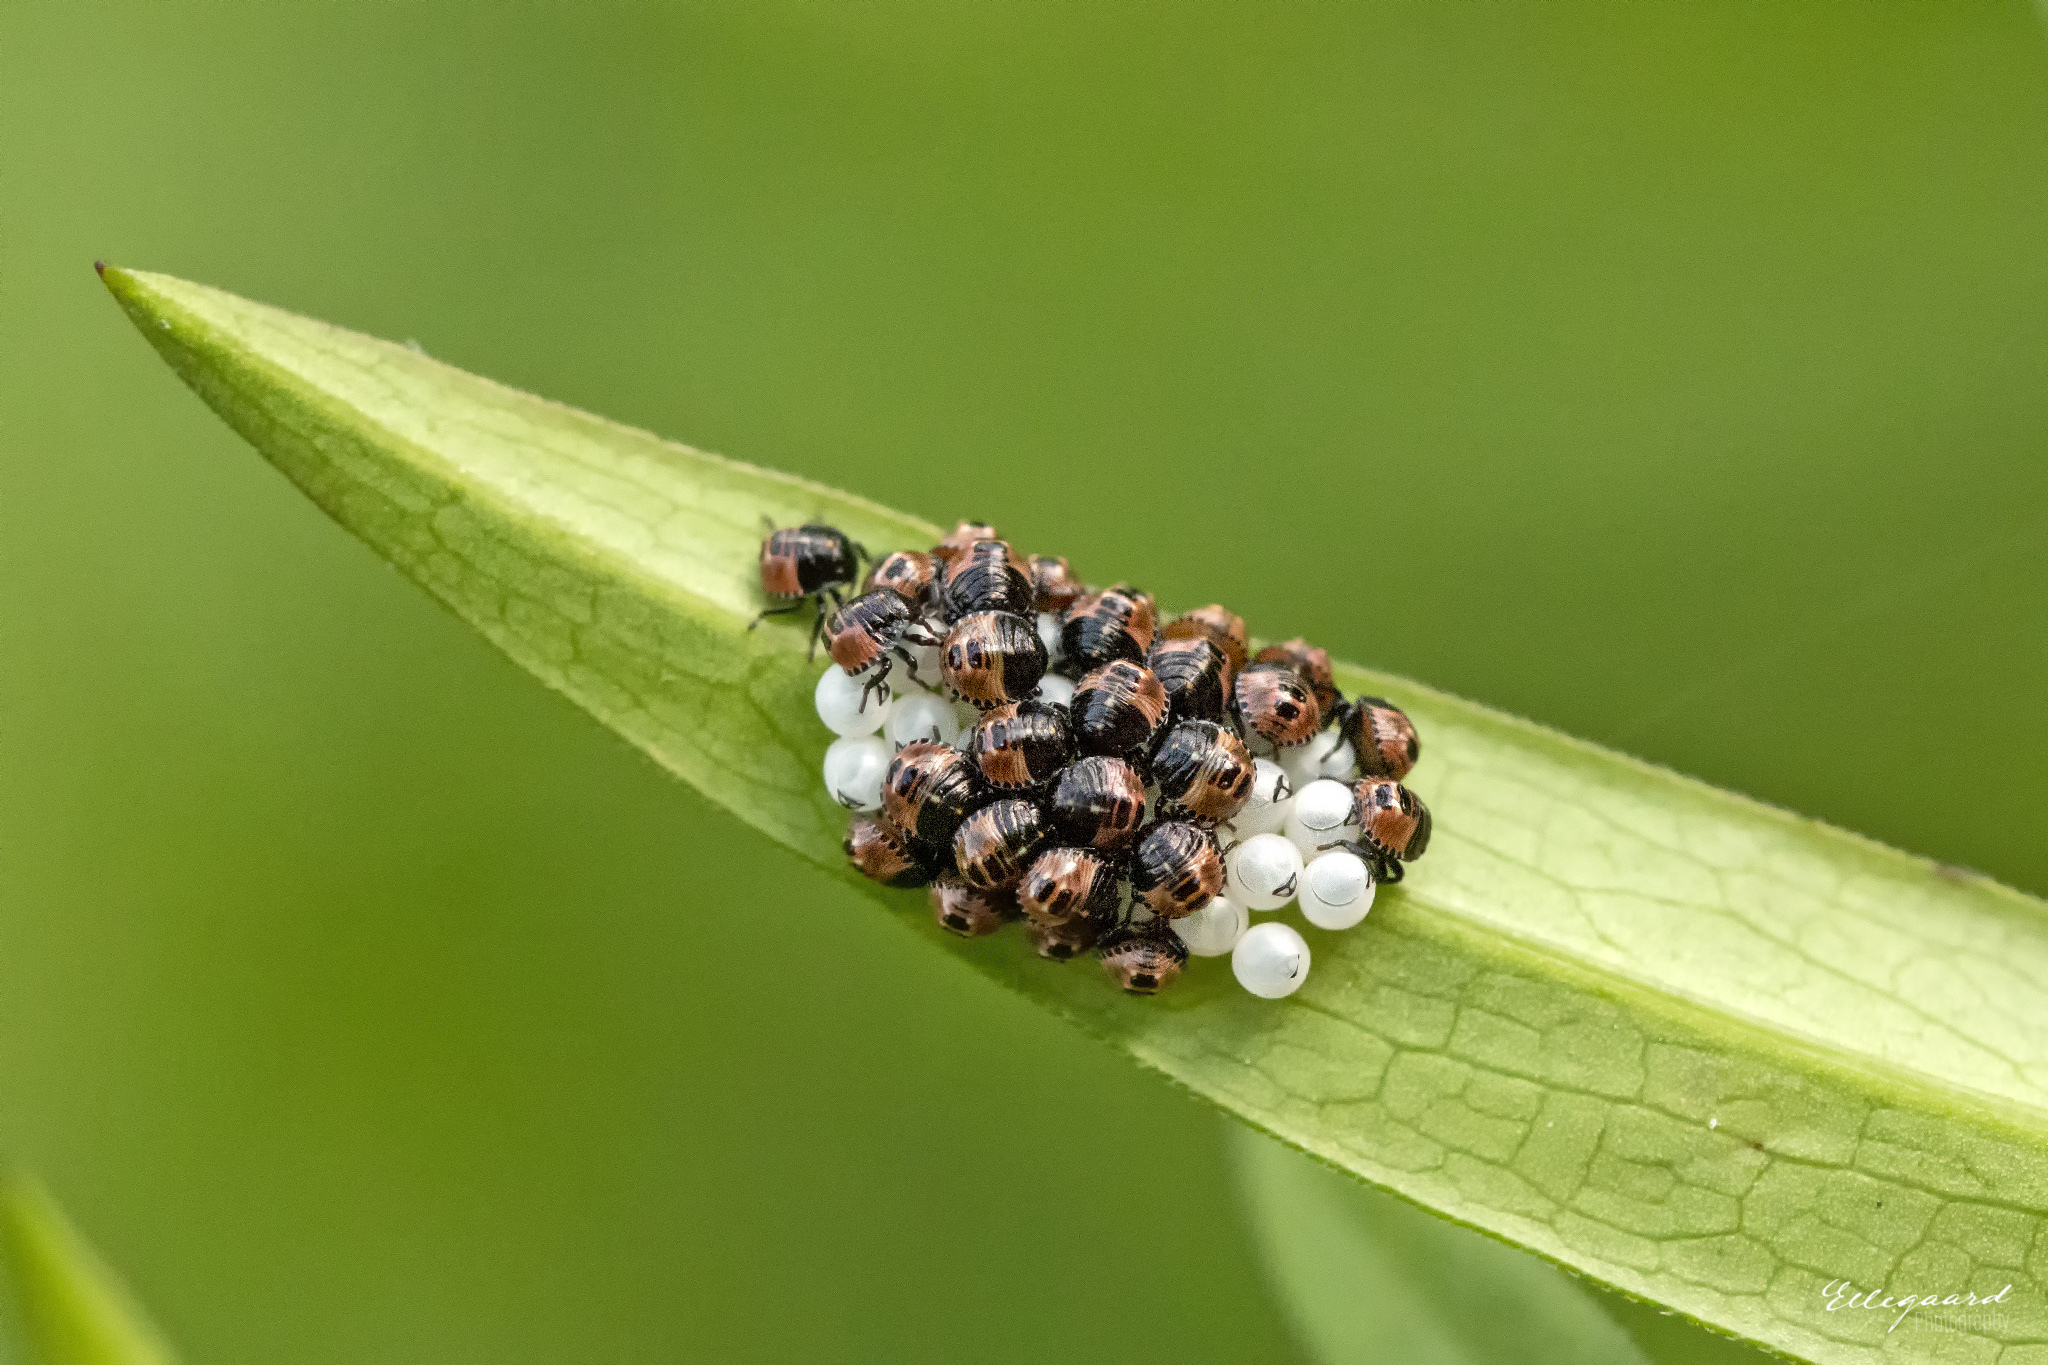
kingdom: Animalia
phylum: Arthropoda
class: Insecta
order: Hemiptera
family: Pentatomidae
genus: Palomena
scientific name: Palomena prasina
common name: Green shieldbug
